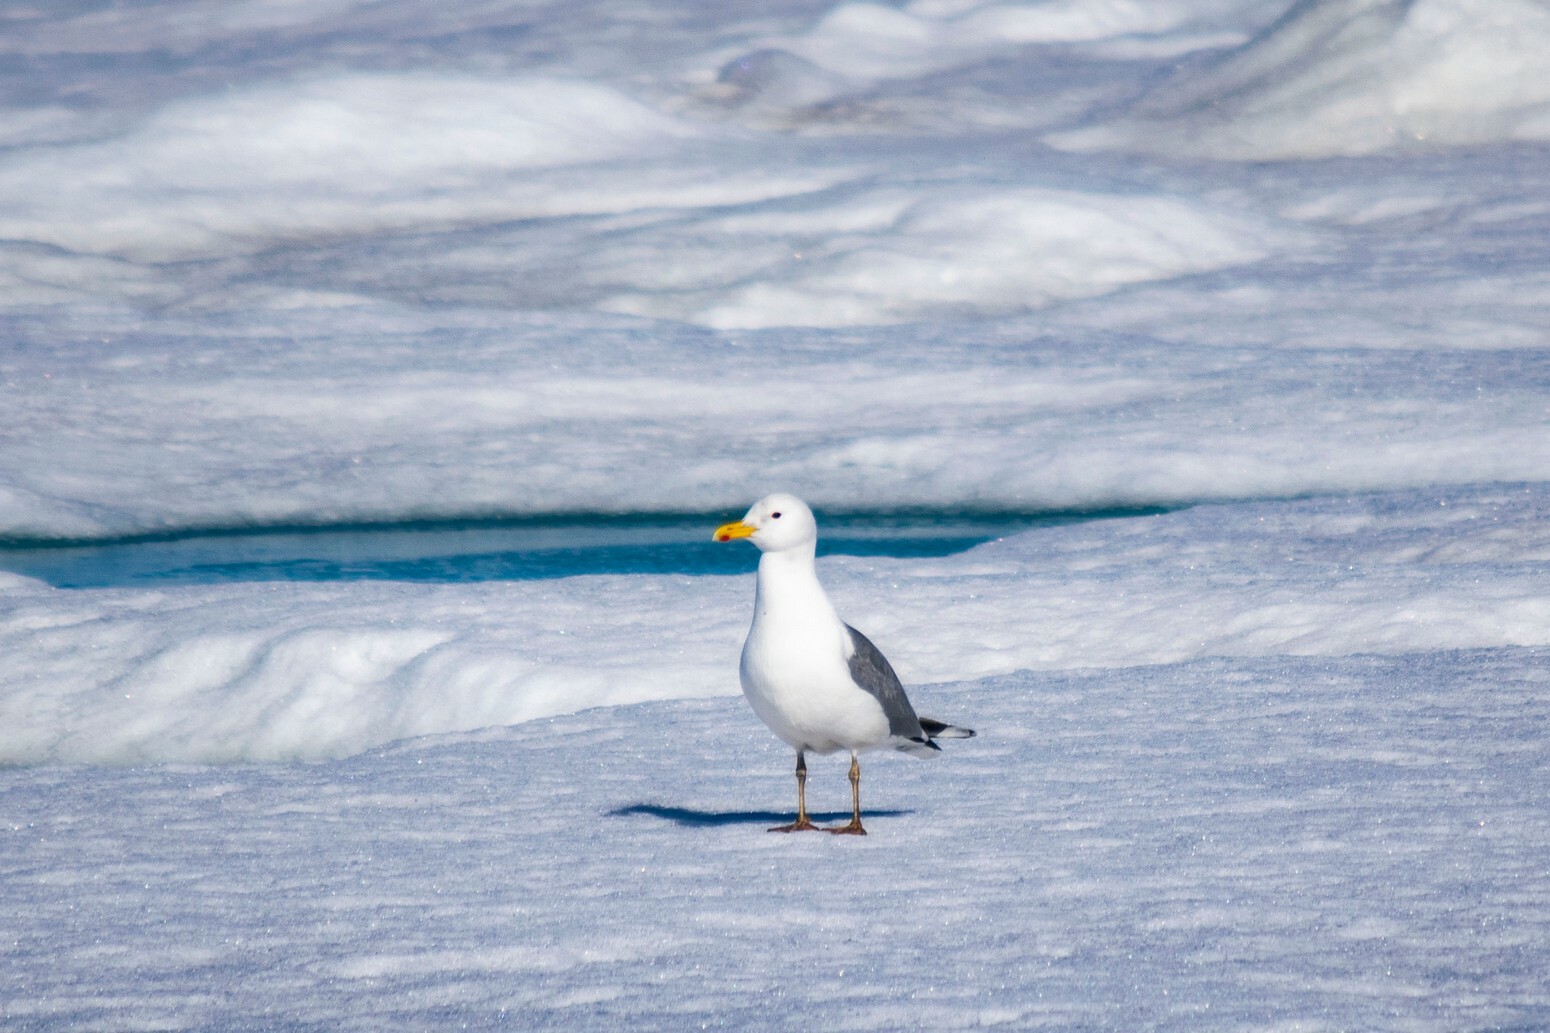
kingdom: Animalia
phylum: Chordata
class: Aves
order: Charadriiformes
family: Laridae
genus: Larus
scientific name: Larus vegae
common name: Vega gull
